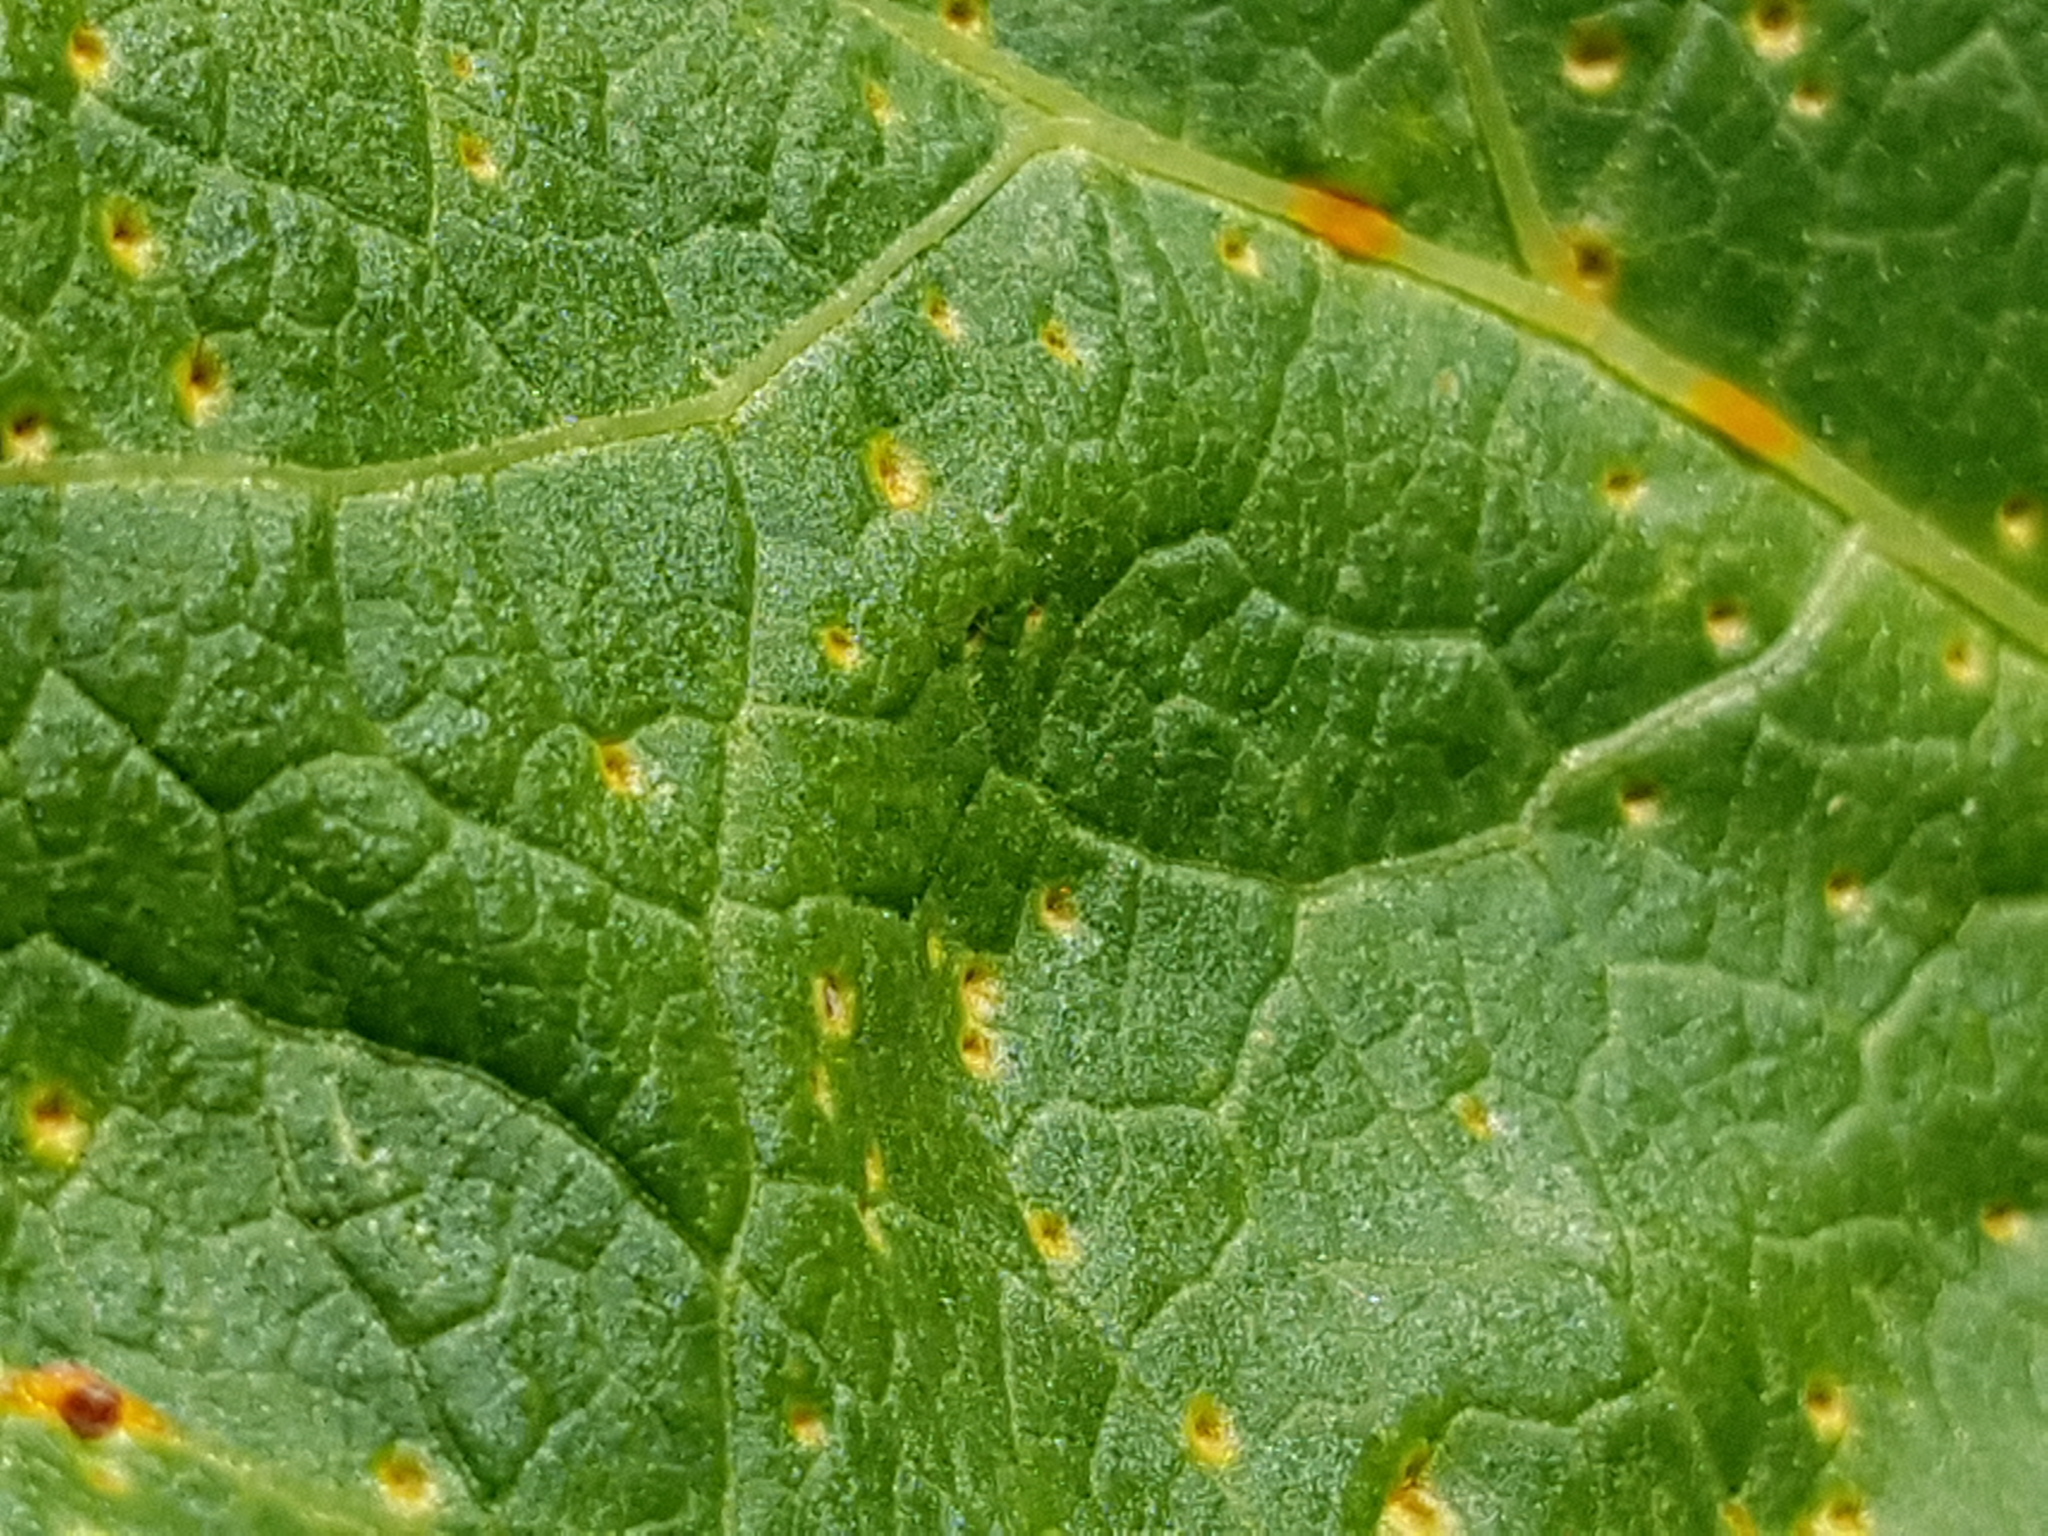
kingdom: Fungi
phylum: Basidiomycota
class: Pucciniomycetes
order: Pucciniales
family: Pucciniaceae
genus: Puccinia
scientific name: Puccinia malvacearum
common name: Hollyhock rust
